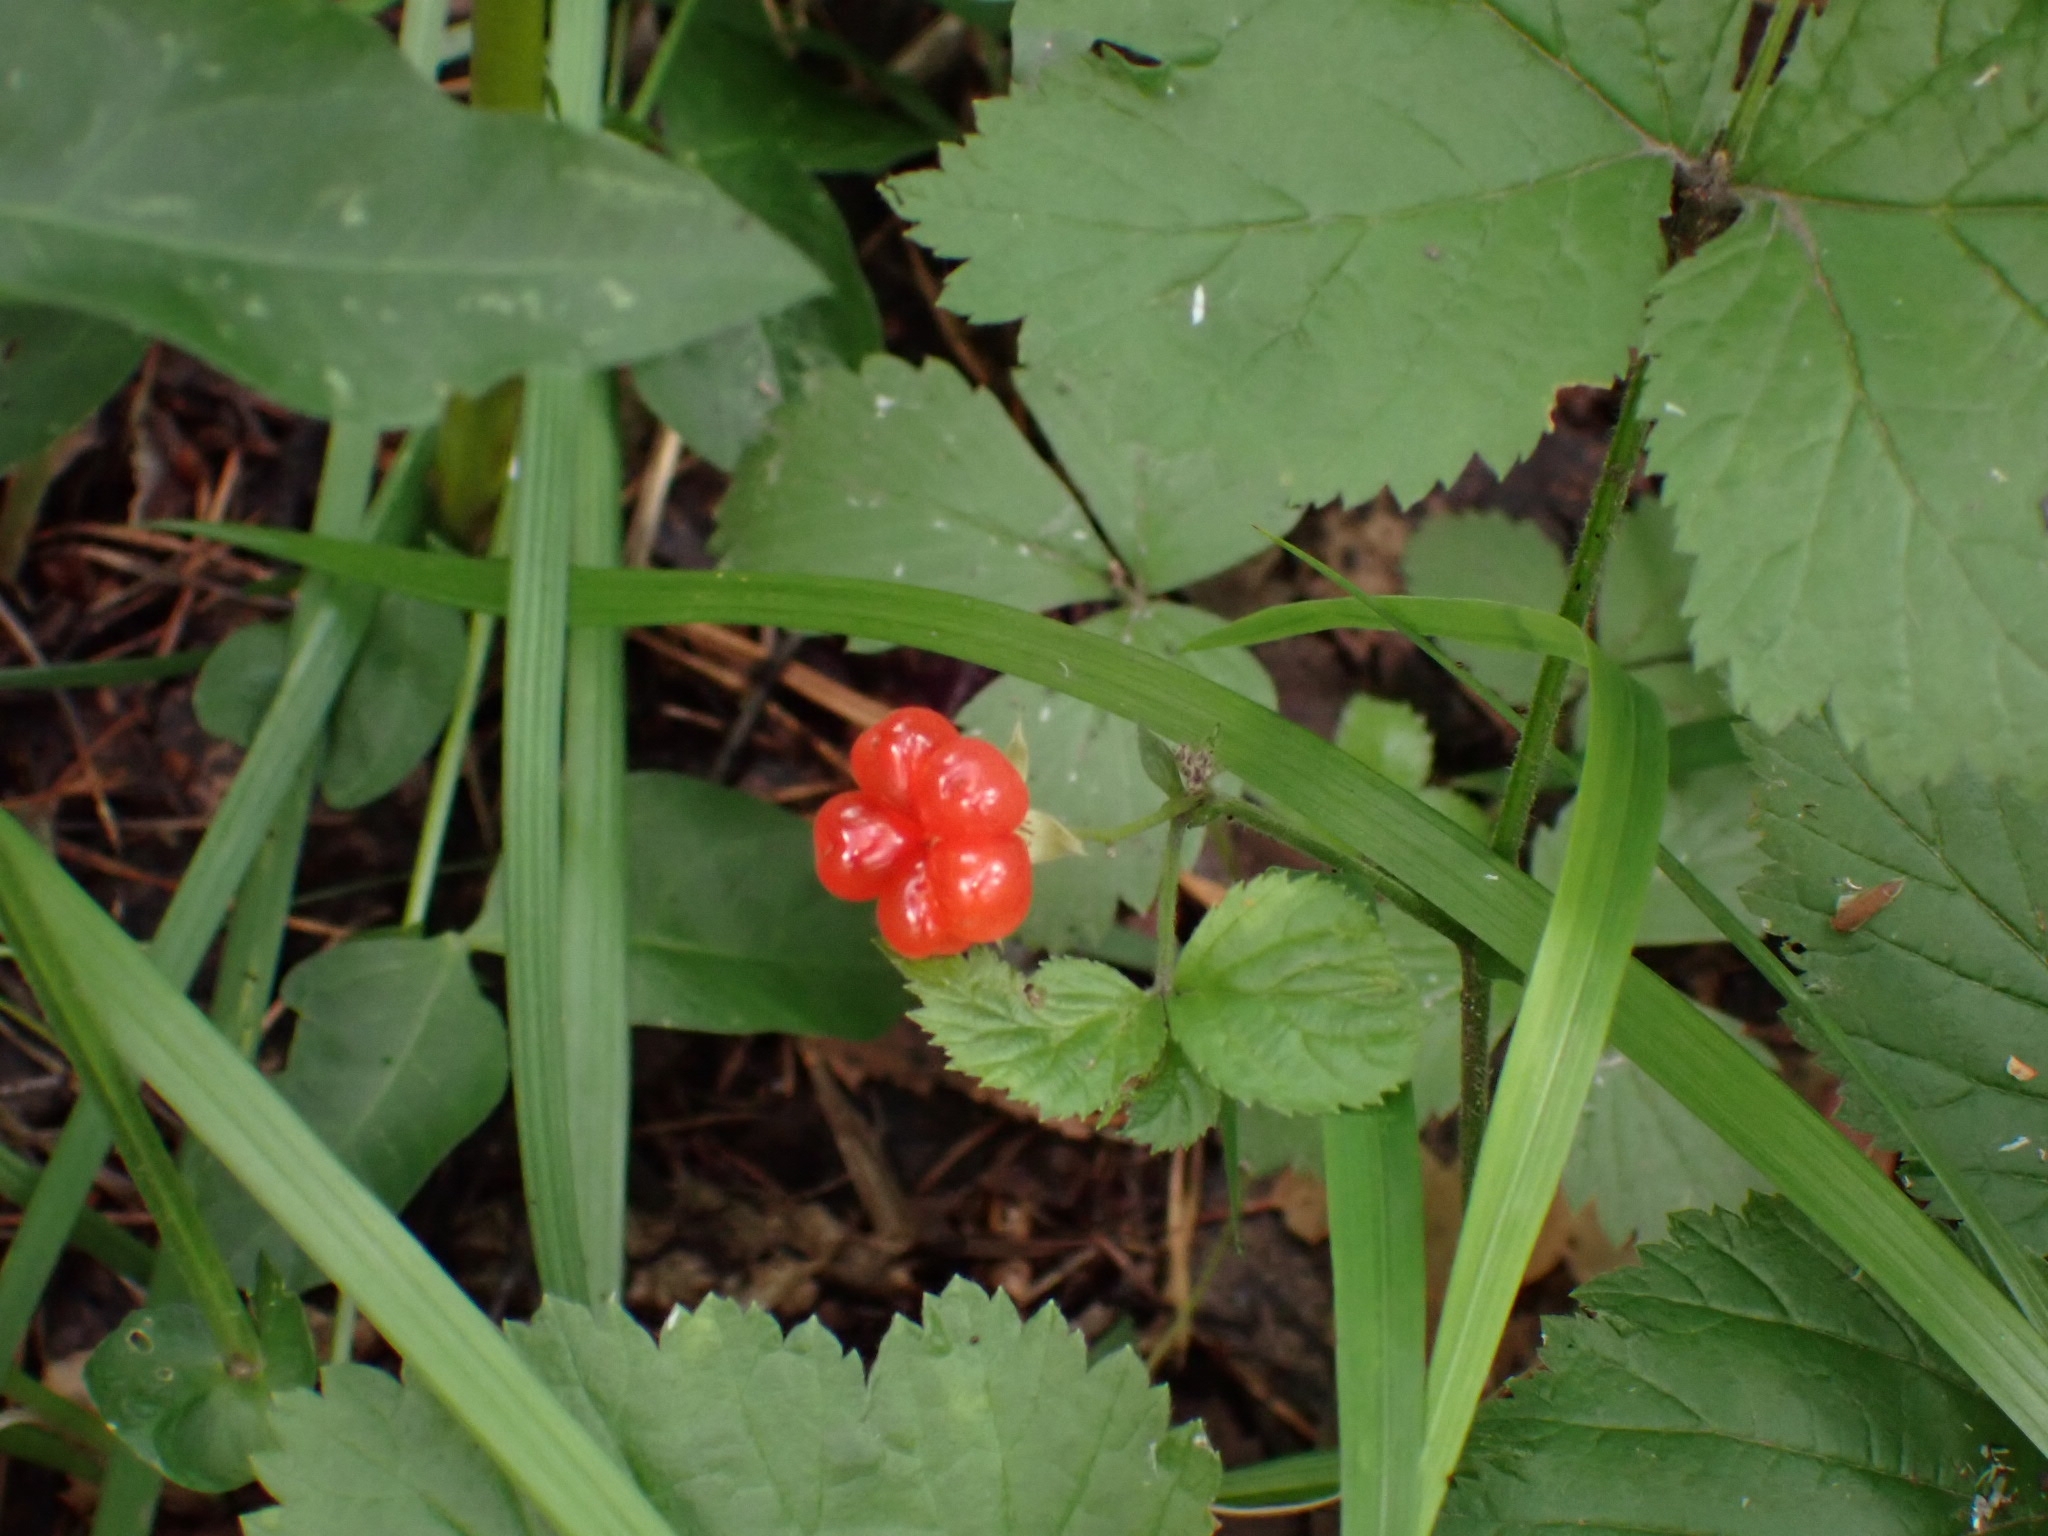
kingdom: Plantae
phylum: Tracheophyta
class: Magnoliopsida
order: Rosales
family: Rosaceae
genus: Rubus
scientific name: Rubus saxatilis
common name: Stone bramble
